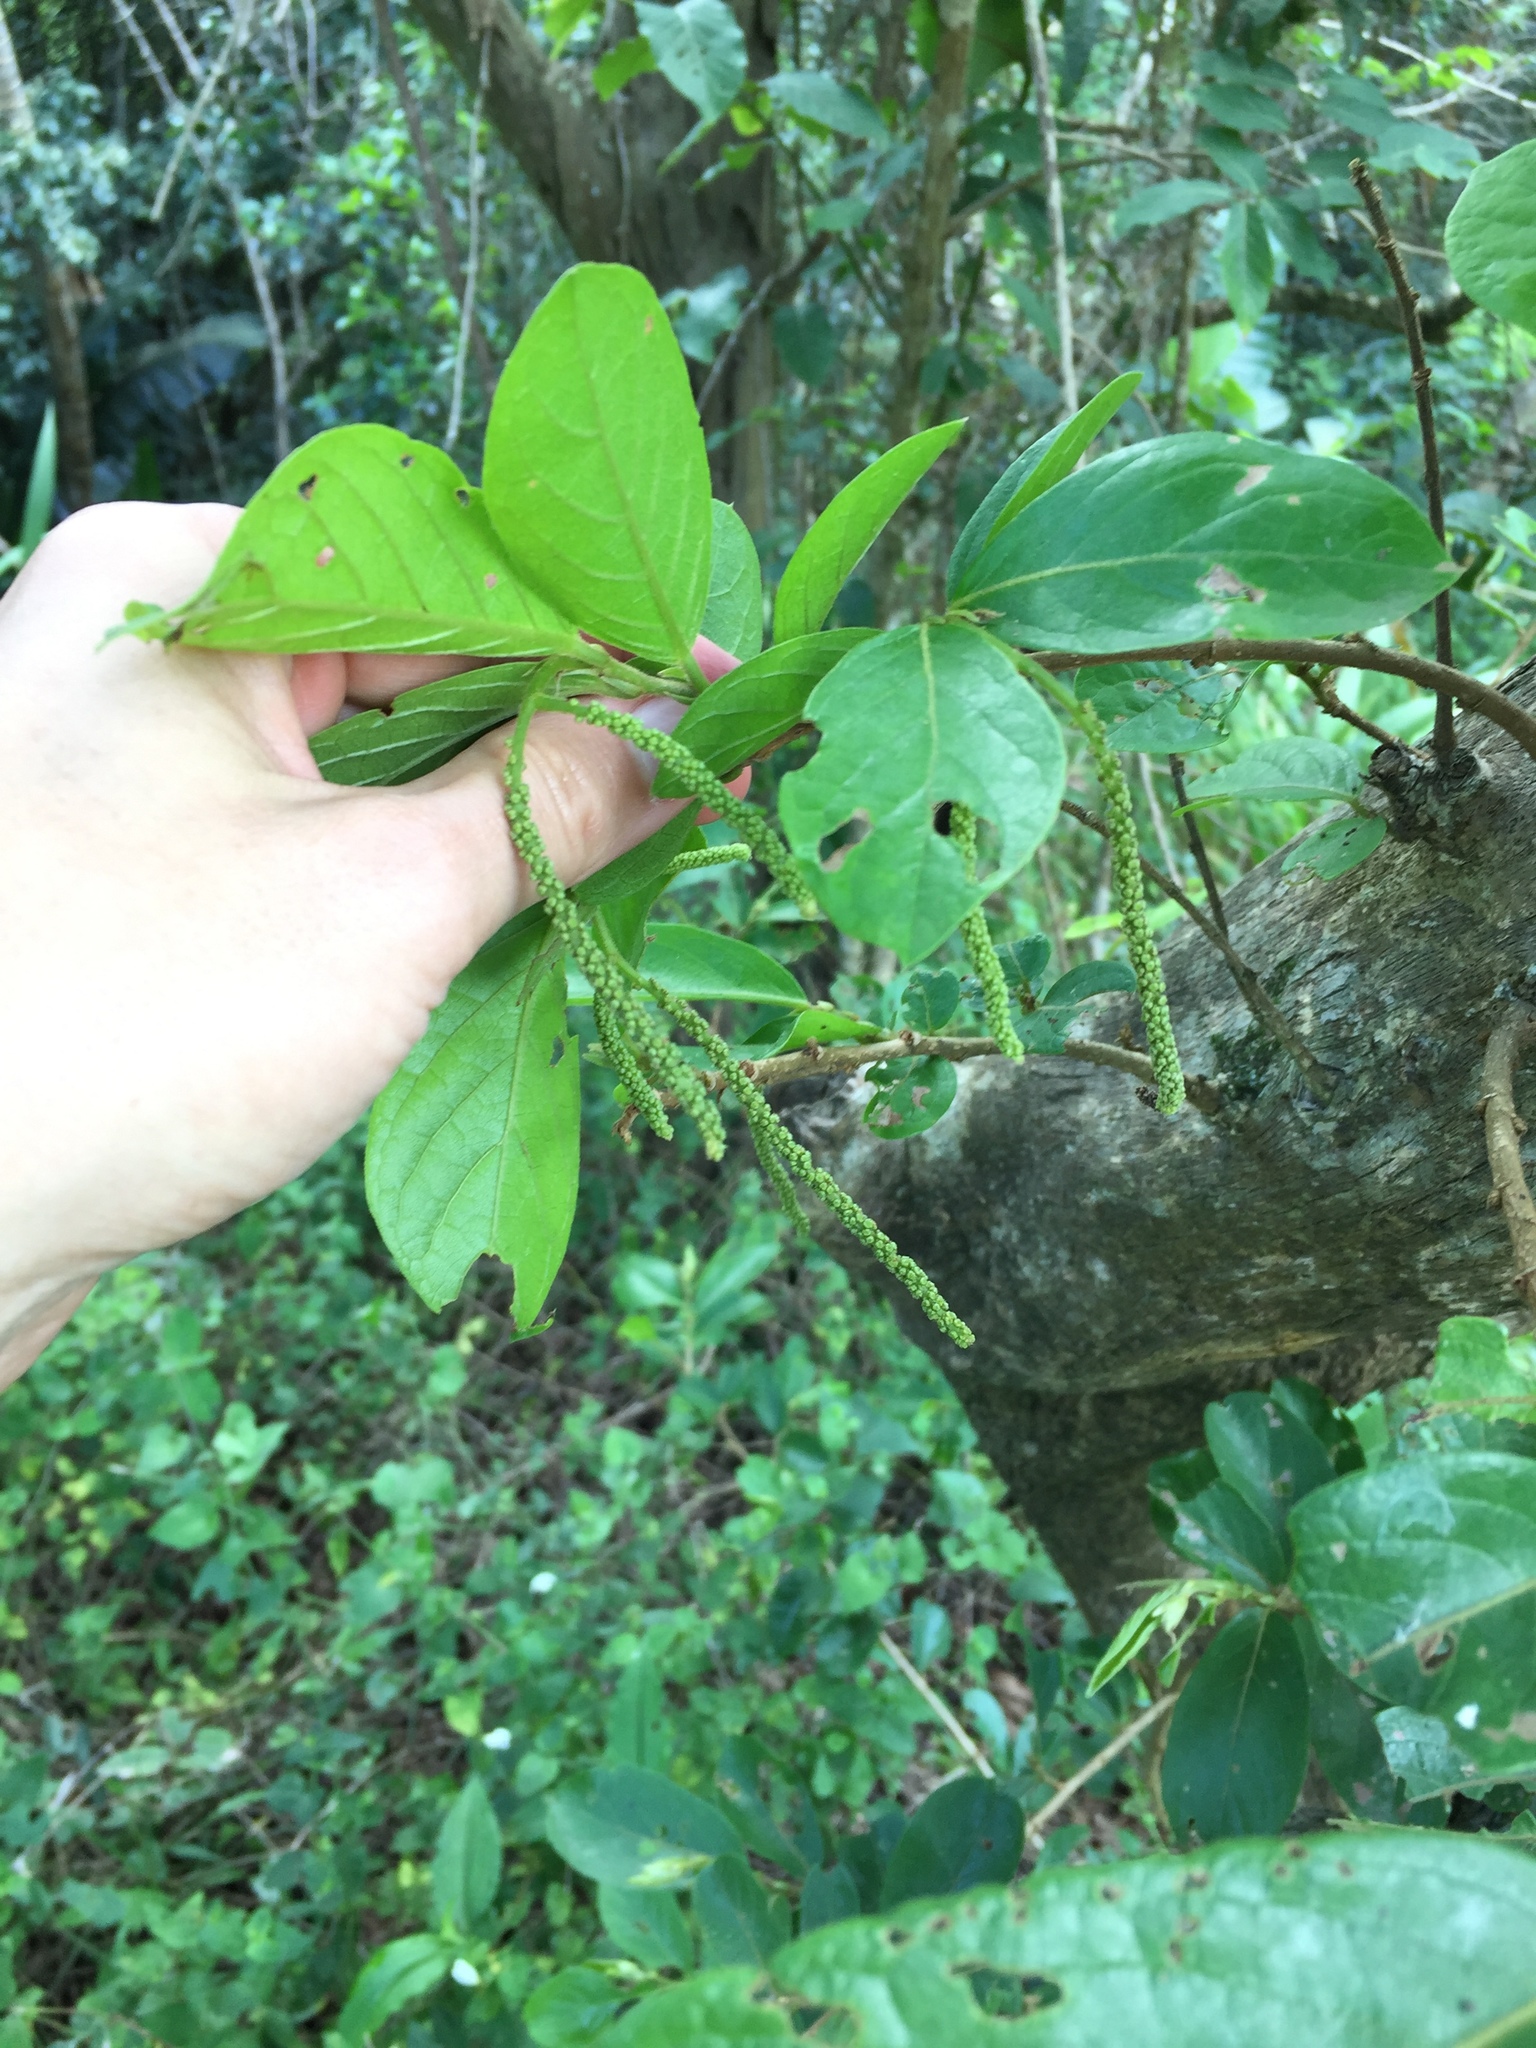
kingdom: Plantae
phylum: Tracheophyta
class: Magnoliopsida
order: Malpighiales
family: Phyllanthaceae
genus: Antidesma
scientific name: Antidesma venosum
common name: Tassel-berry
